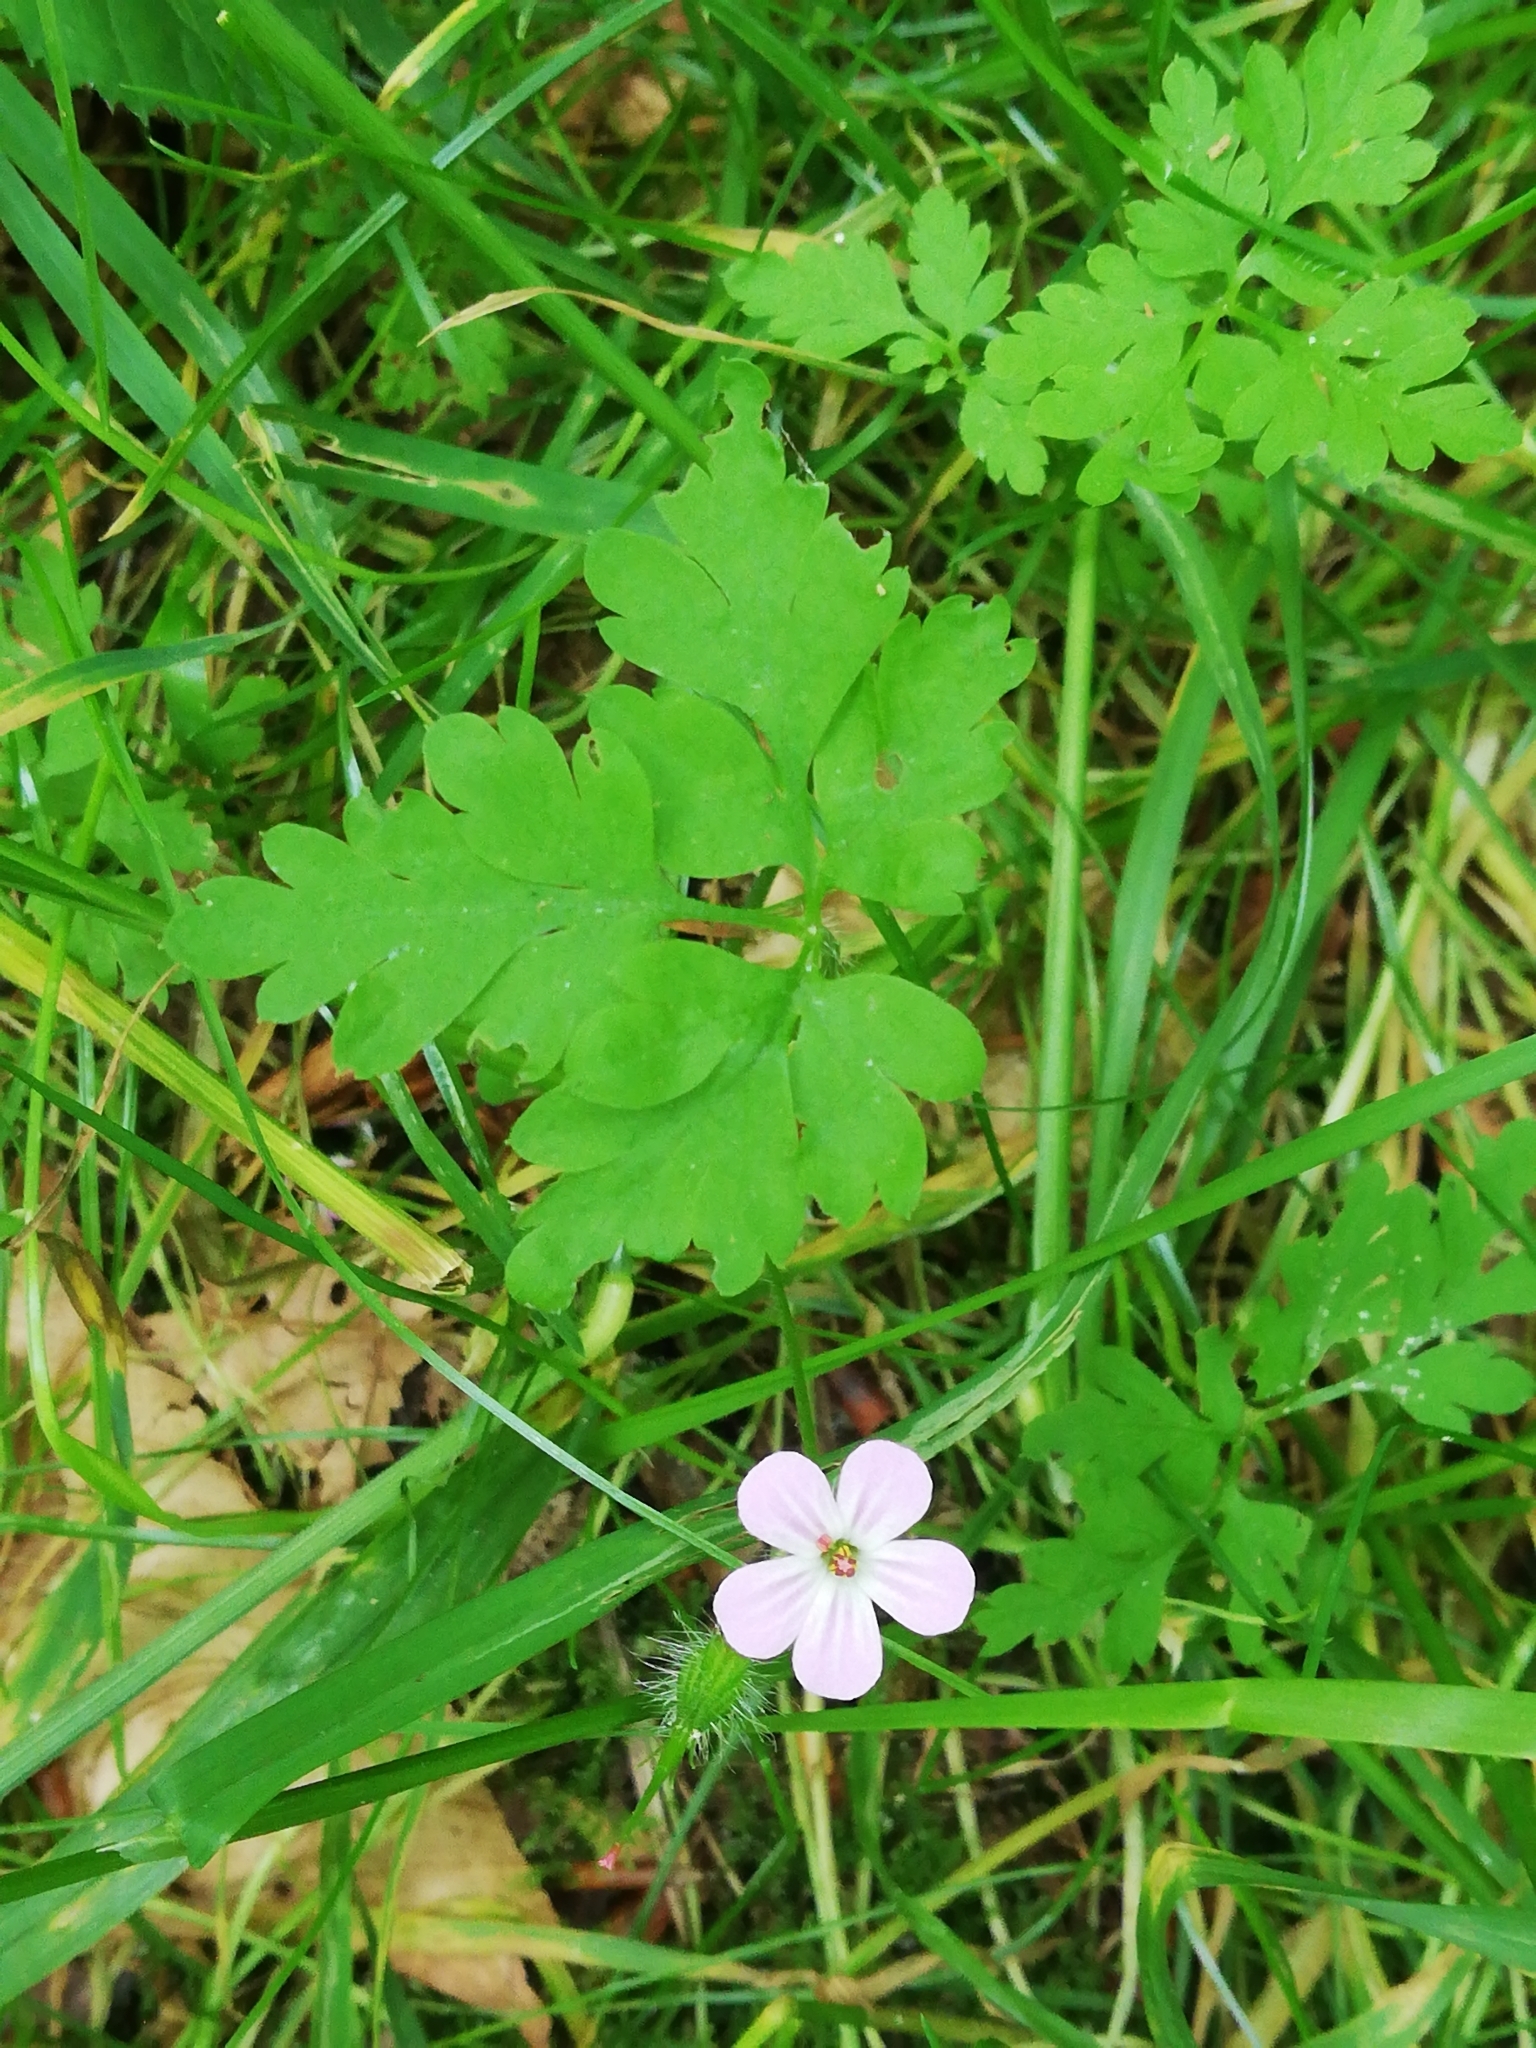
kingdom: Plantae
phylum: Tracheophyta
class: Magnoliopsida
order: Geraniales
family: Geraniaceae
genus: Geranium
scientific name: Geranium robertianum
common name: Herb-robert
